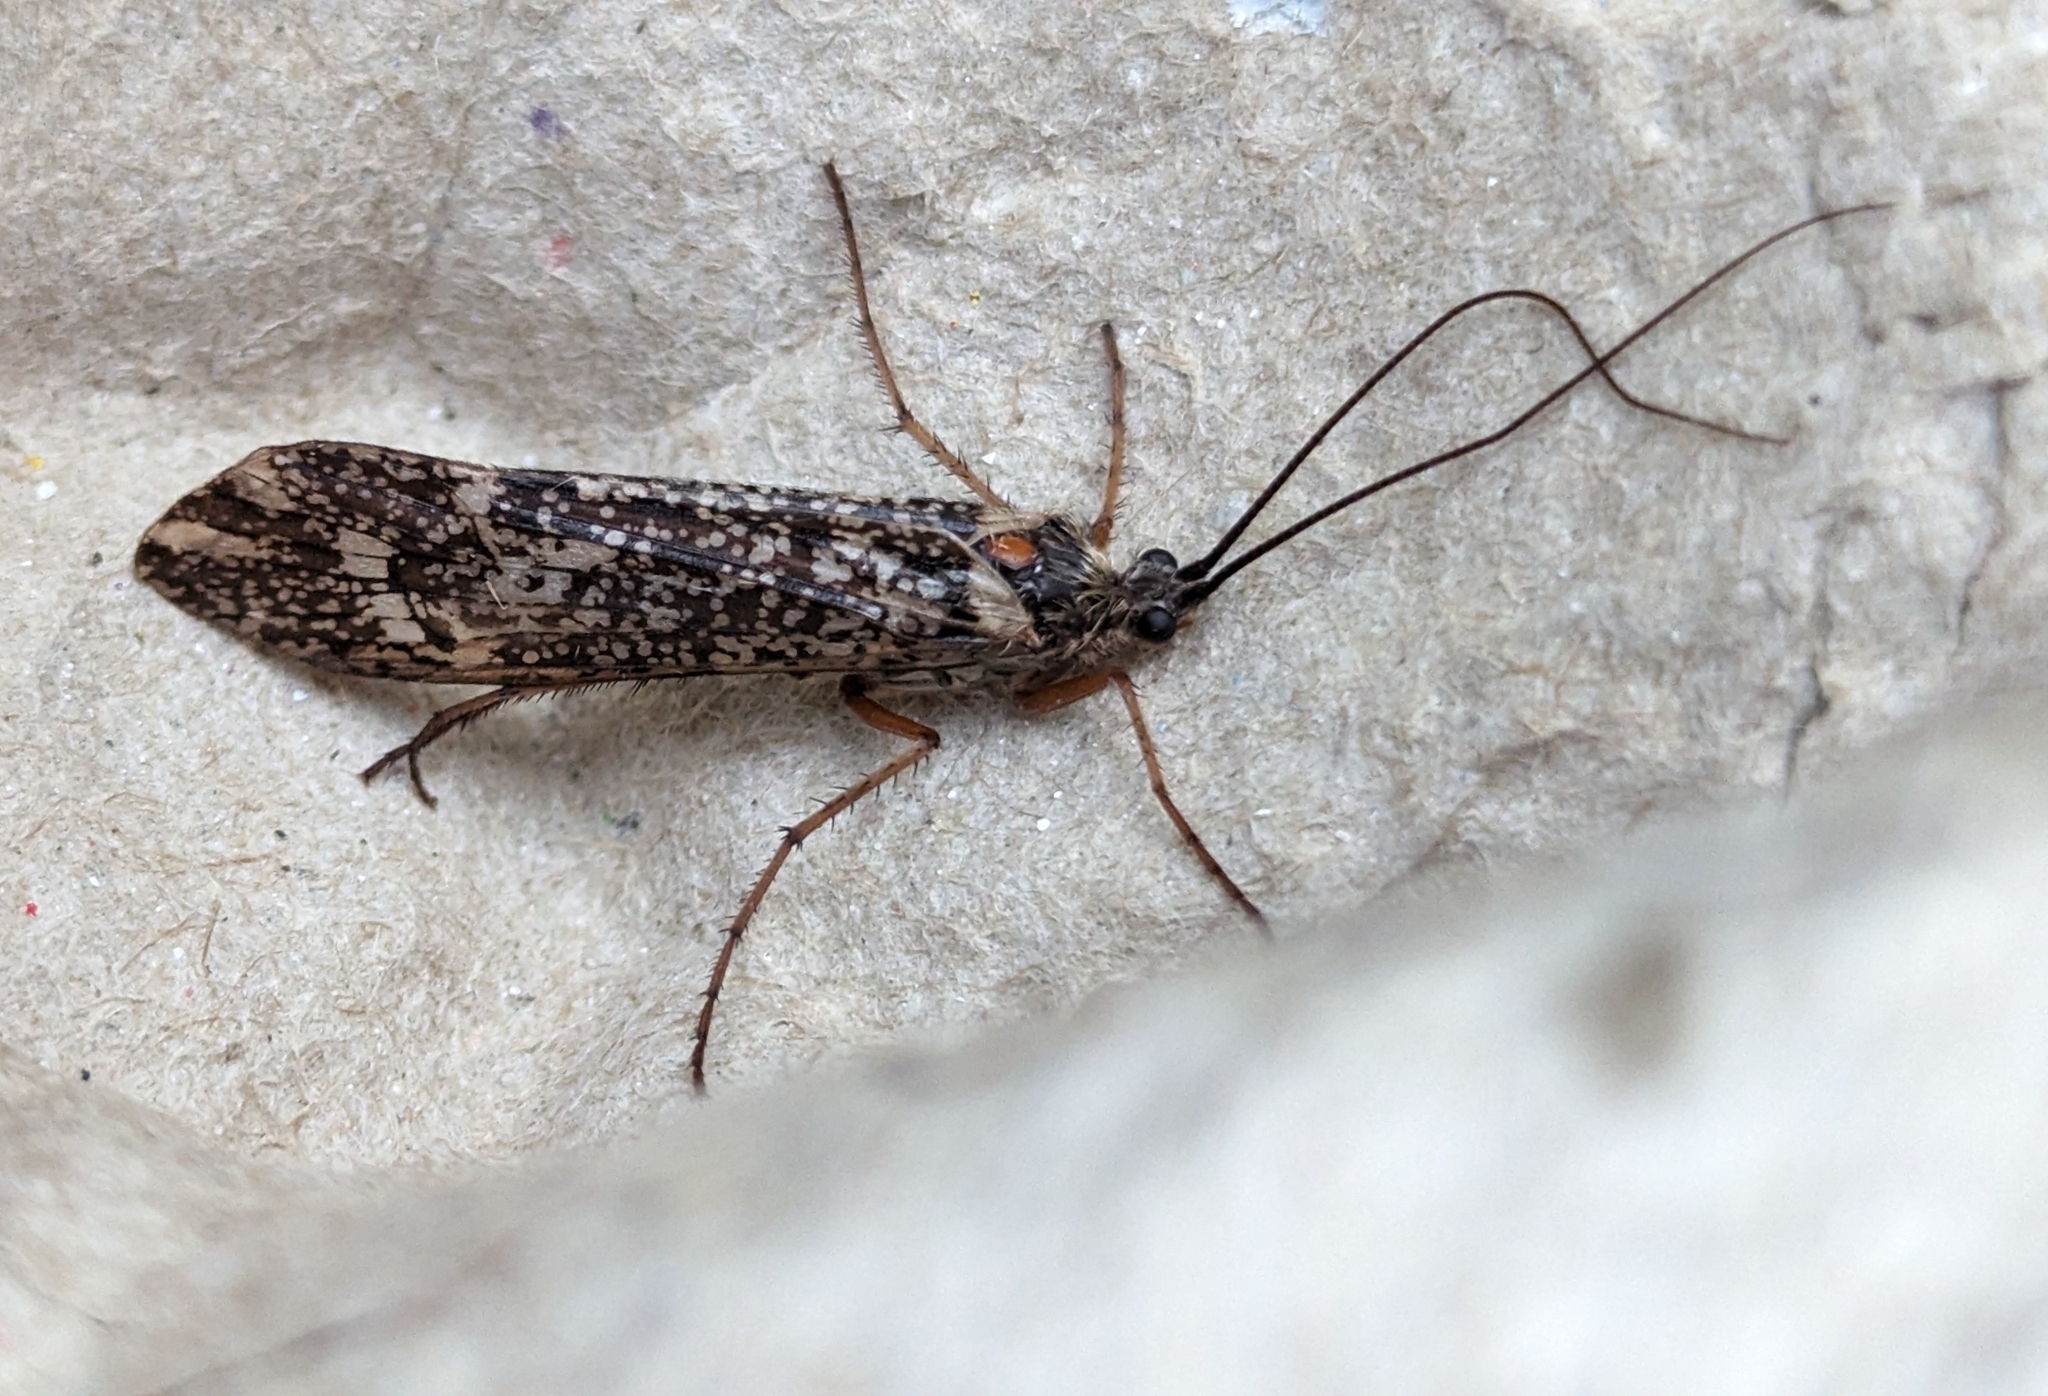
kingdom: Animalia
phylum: Arthropoda
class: Insecta
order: Trichoptera
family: Limnephilidae
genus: Clistoronia
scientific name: Clistoronia magnifica
